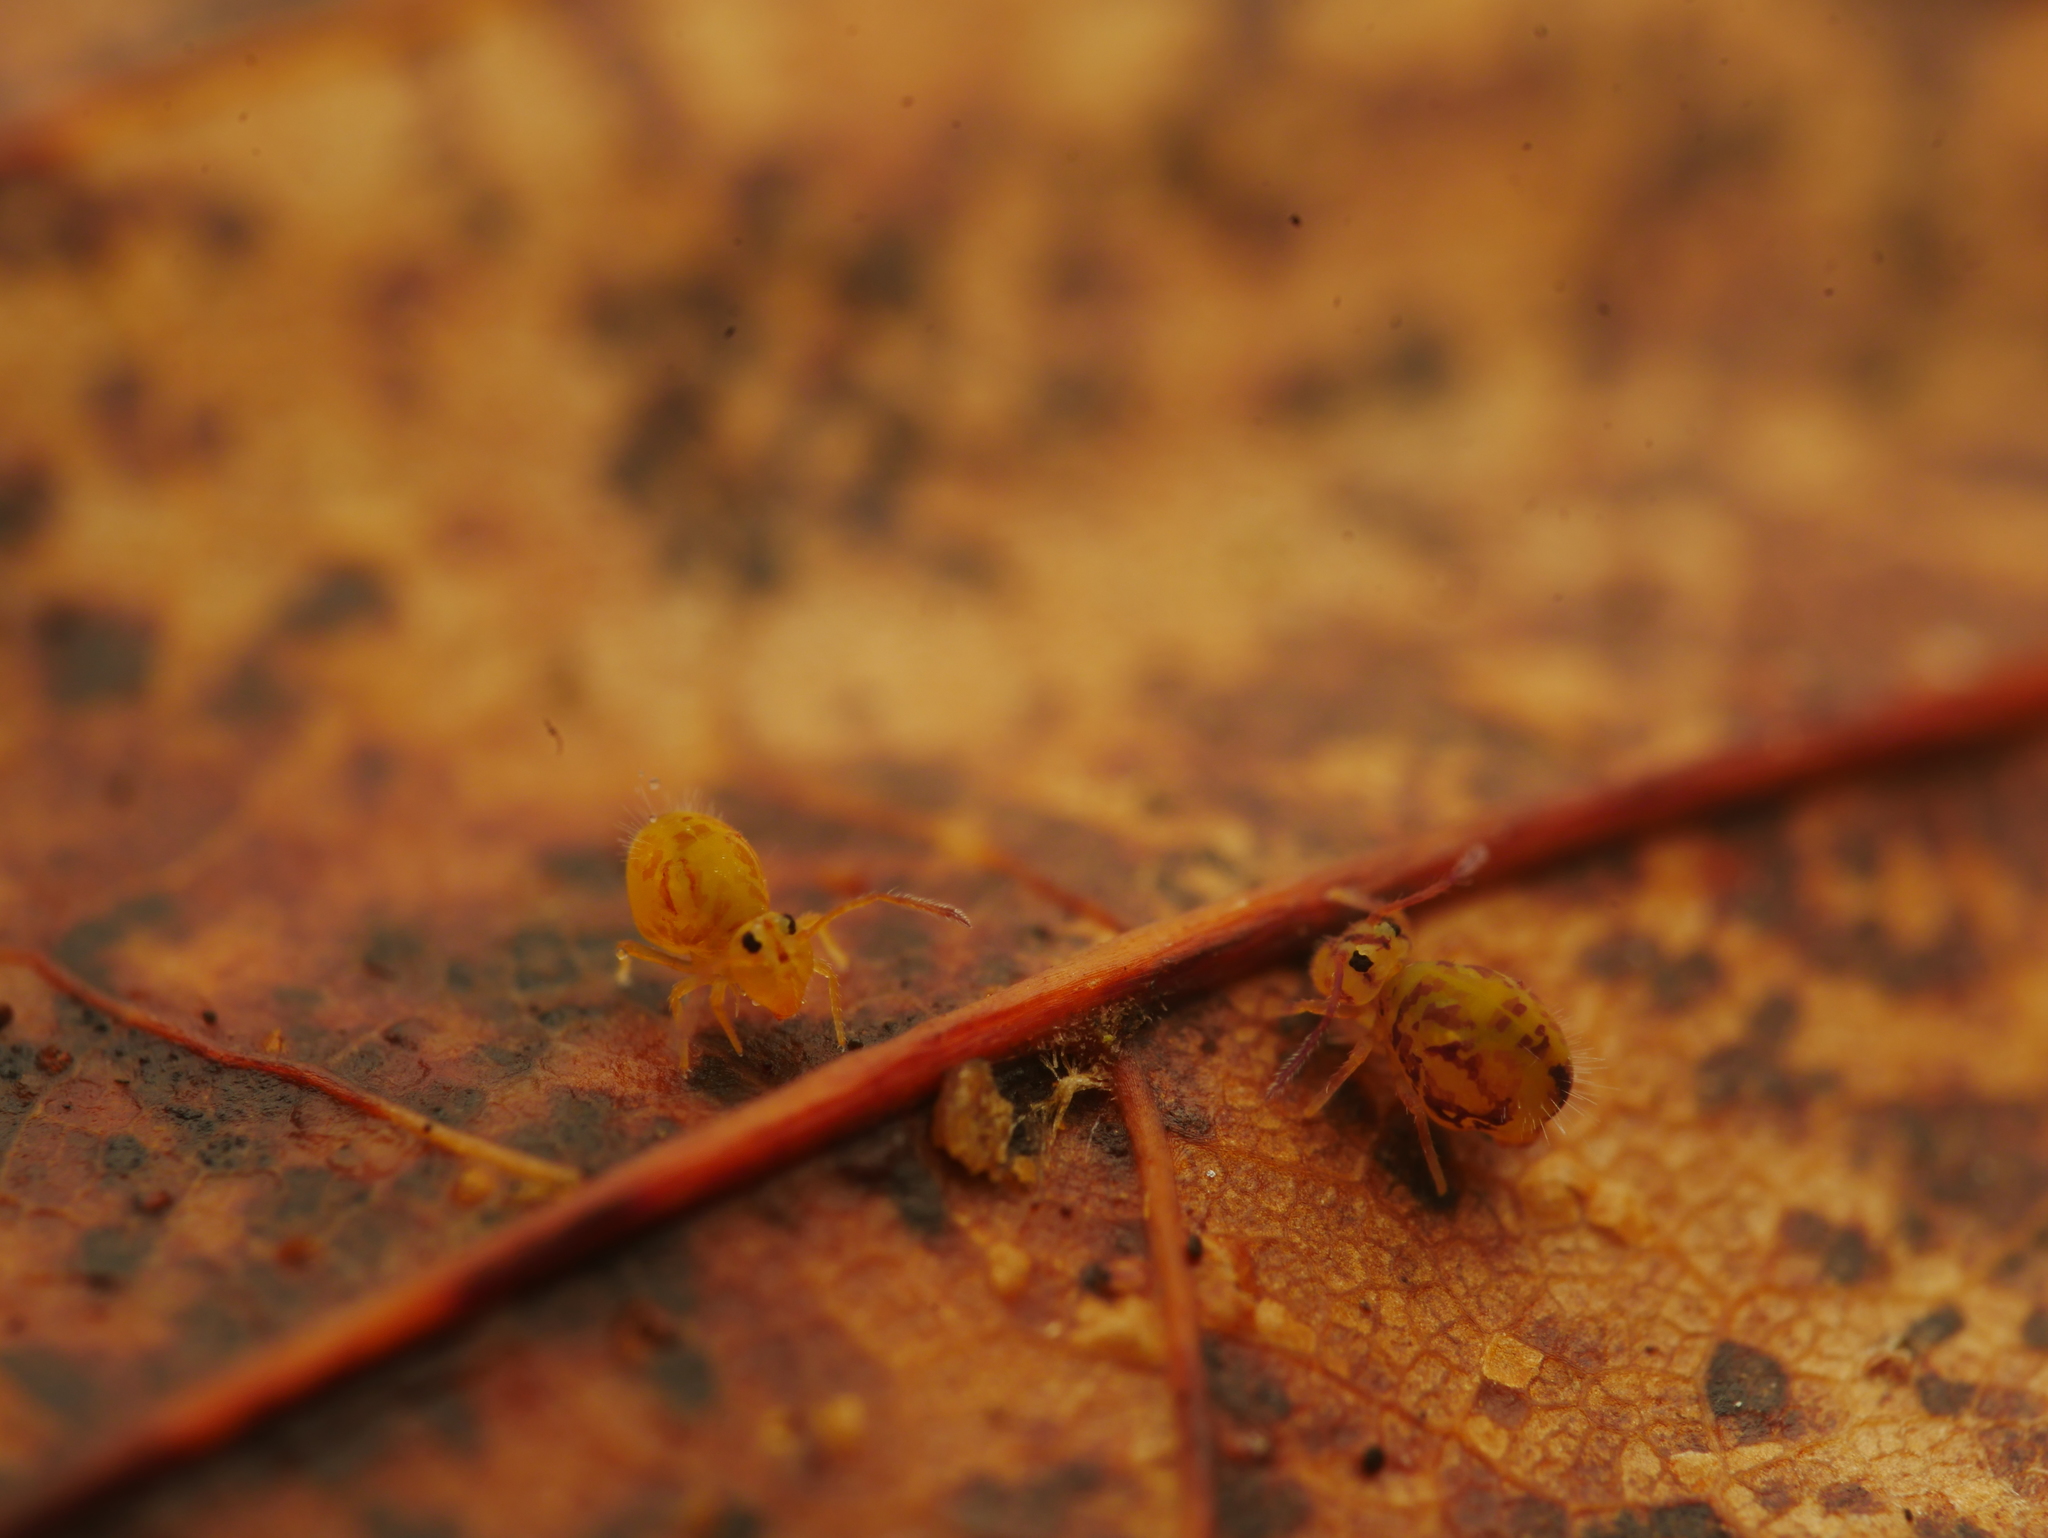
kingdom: Animalia
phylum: Arthropoda
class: Collembola
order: Symphypleona
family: Dicyrtomidae
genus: Dicyrtomina
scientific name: Dicyrtomina ornata
